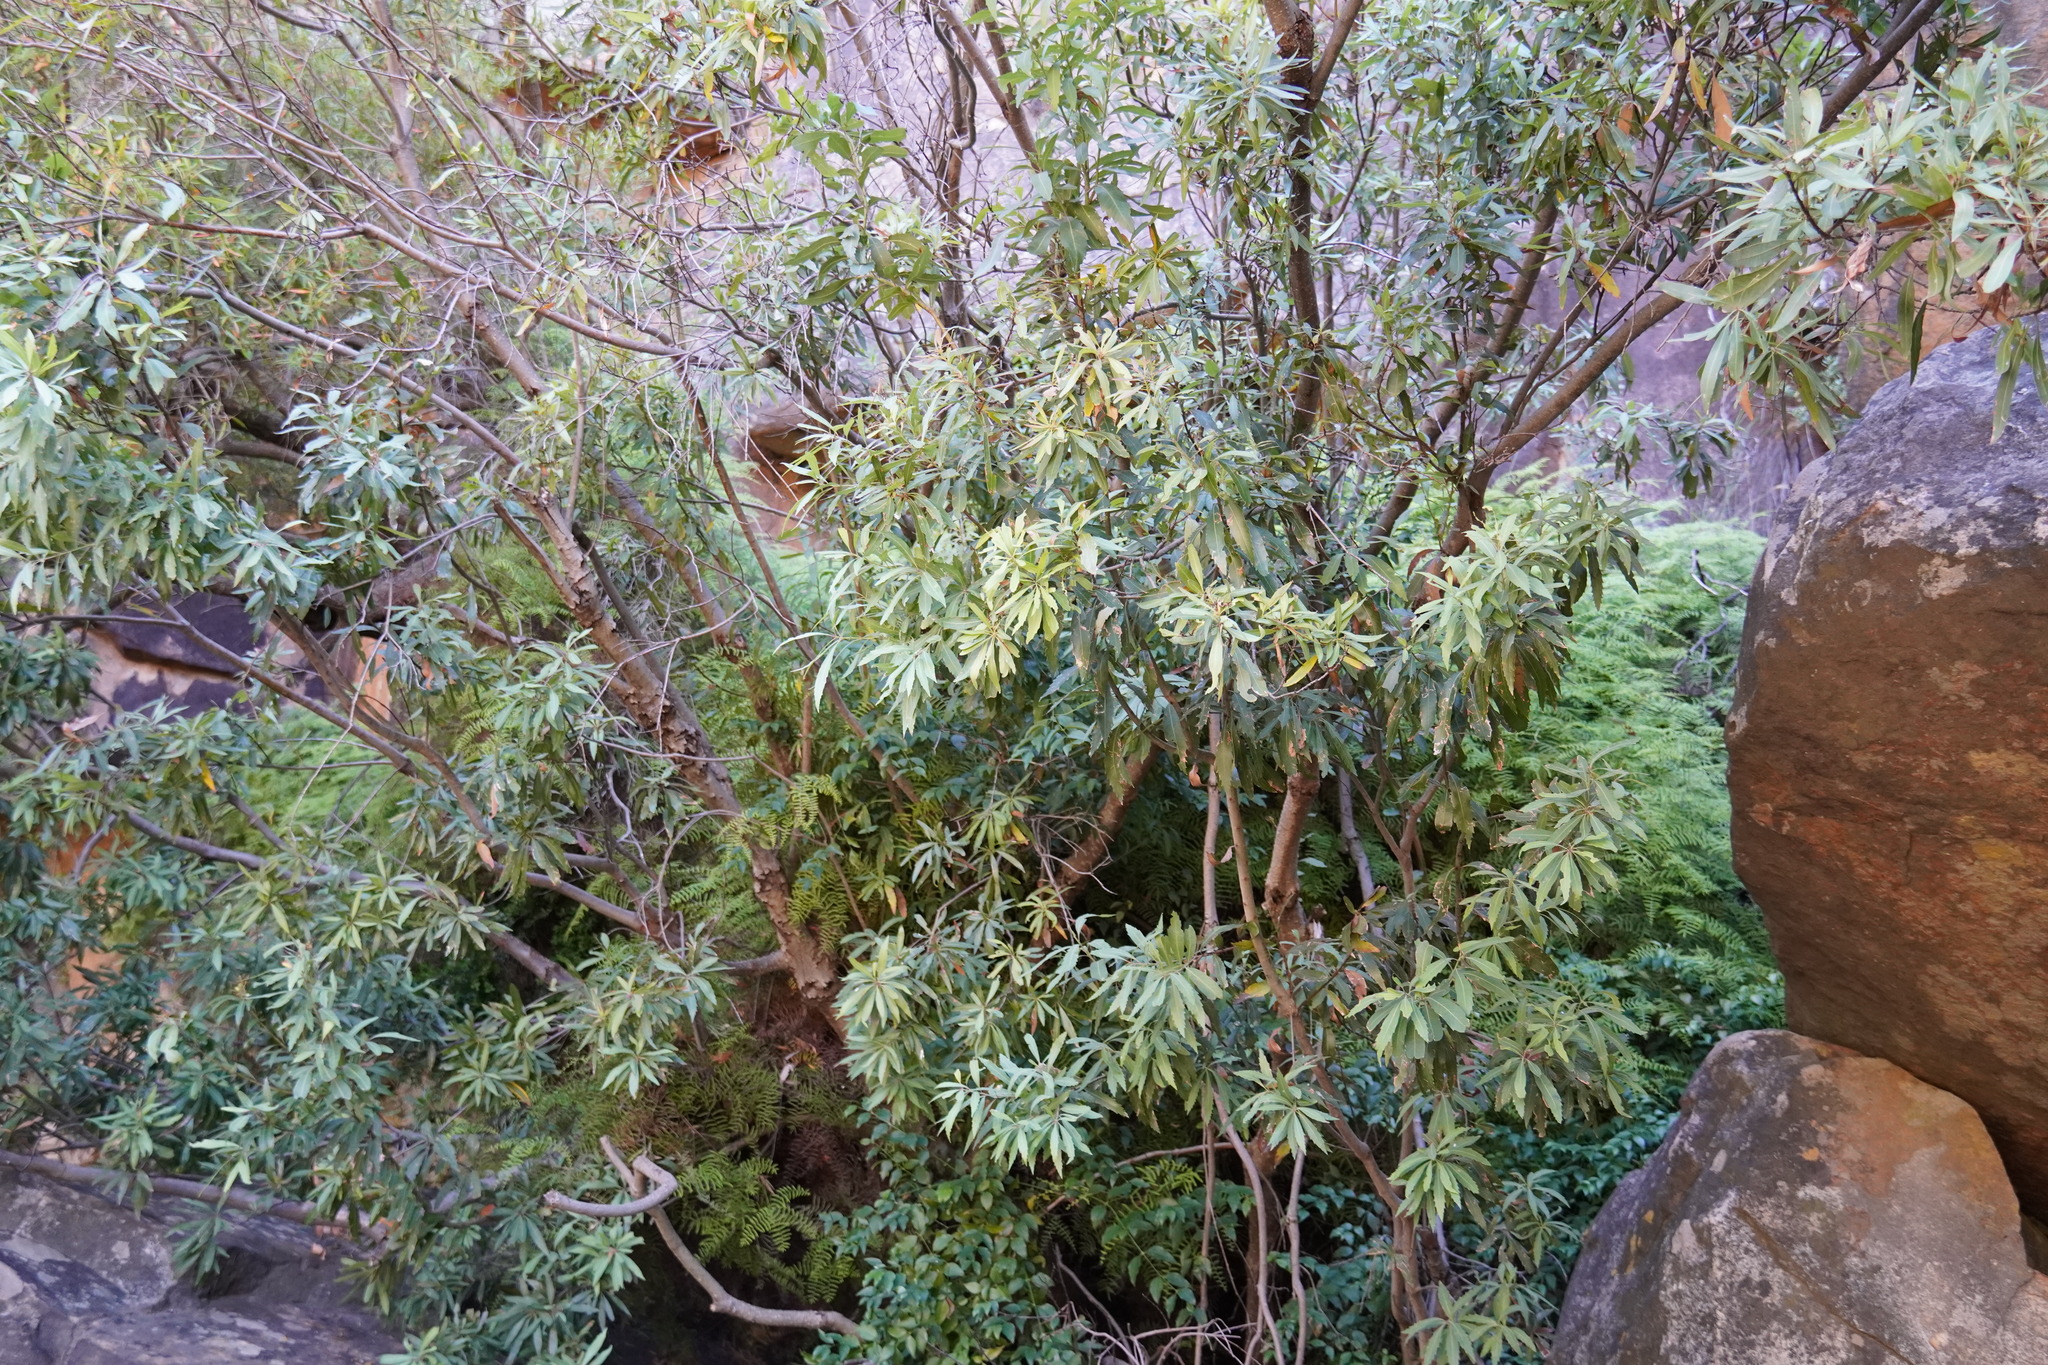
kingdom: Plantae
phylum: Tracheophyta
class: Magnoliopsida
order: Proteales
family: Proteaceae
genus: Brabejum
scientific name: Brabejum stellatifolium
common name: Wild almond
